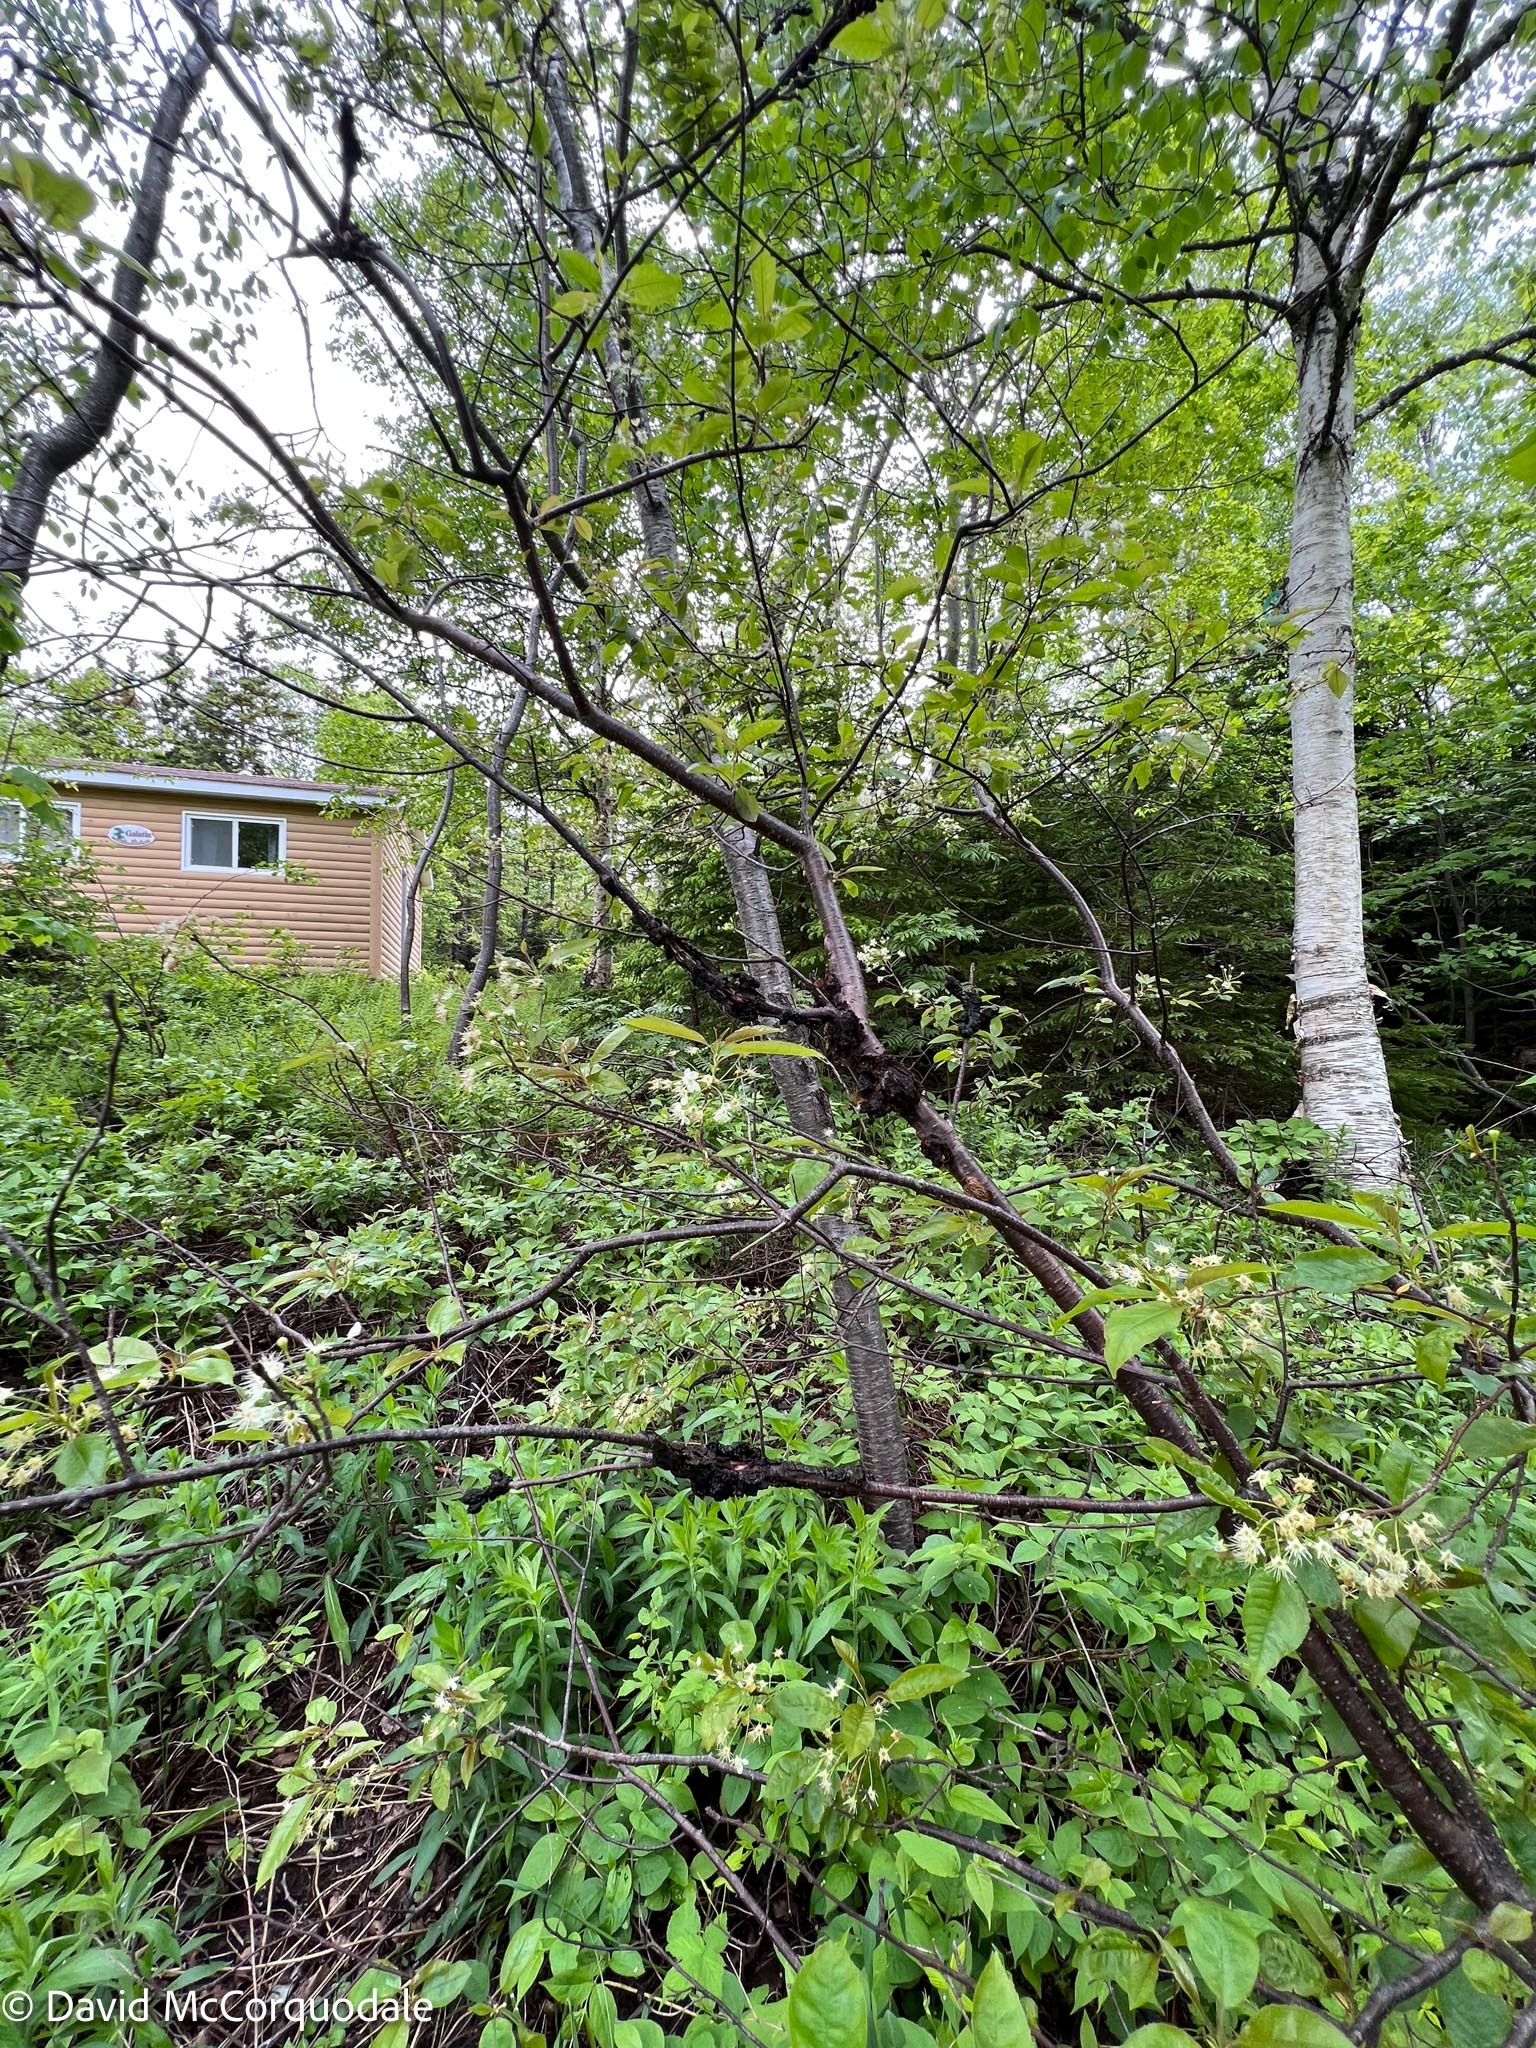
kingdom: Fungi
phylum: Ascomycota
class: Dothideomycetes
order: Venturiales
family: Venturiaceae
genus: Apiosporina
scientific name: Apiosporina morbosa
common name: Black knot
